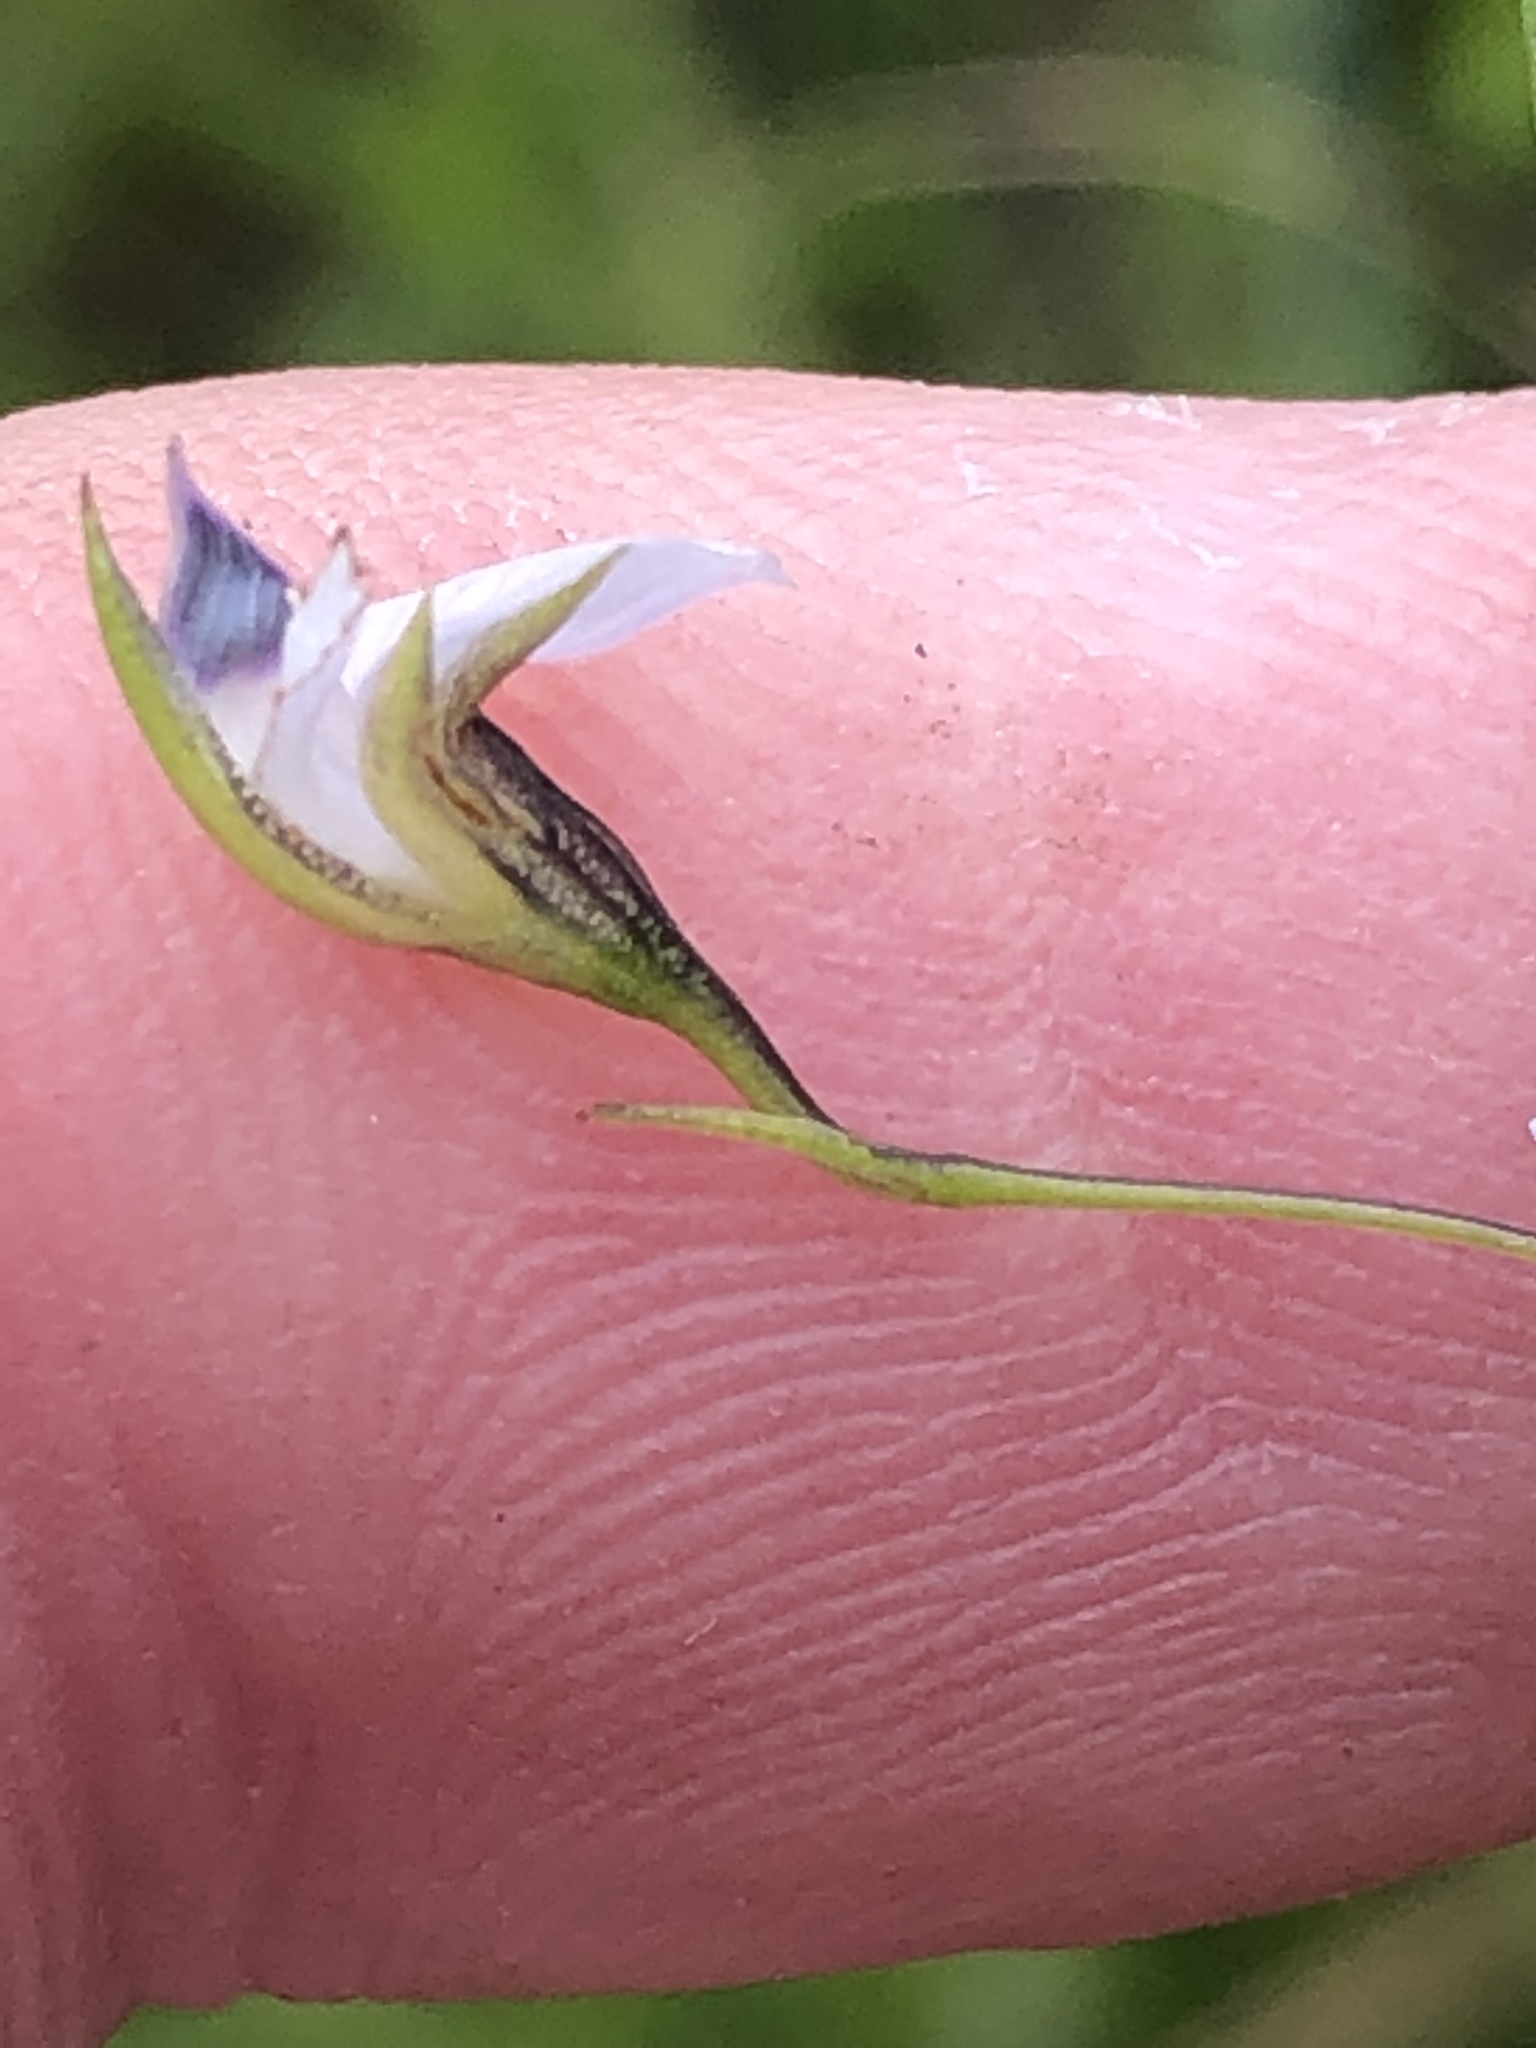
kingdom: Plantae
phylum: Tracheophyta
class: Magnoliopsida
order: Fabales
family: Fabaceae
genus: Psoralea
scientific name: Psoralea trullata
